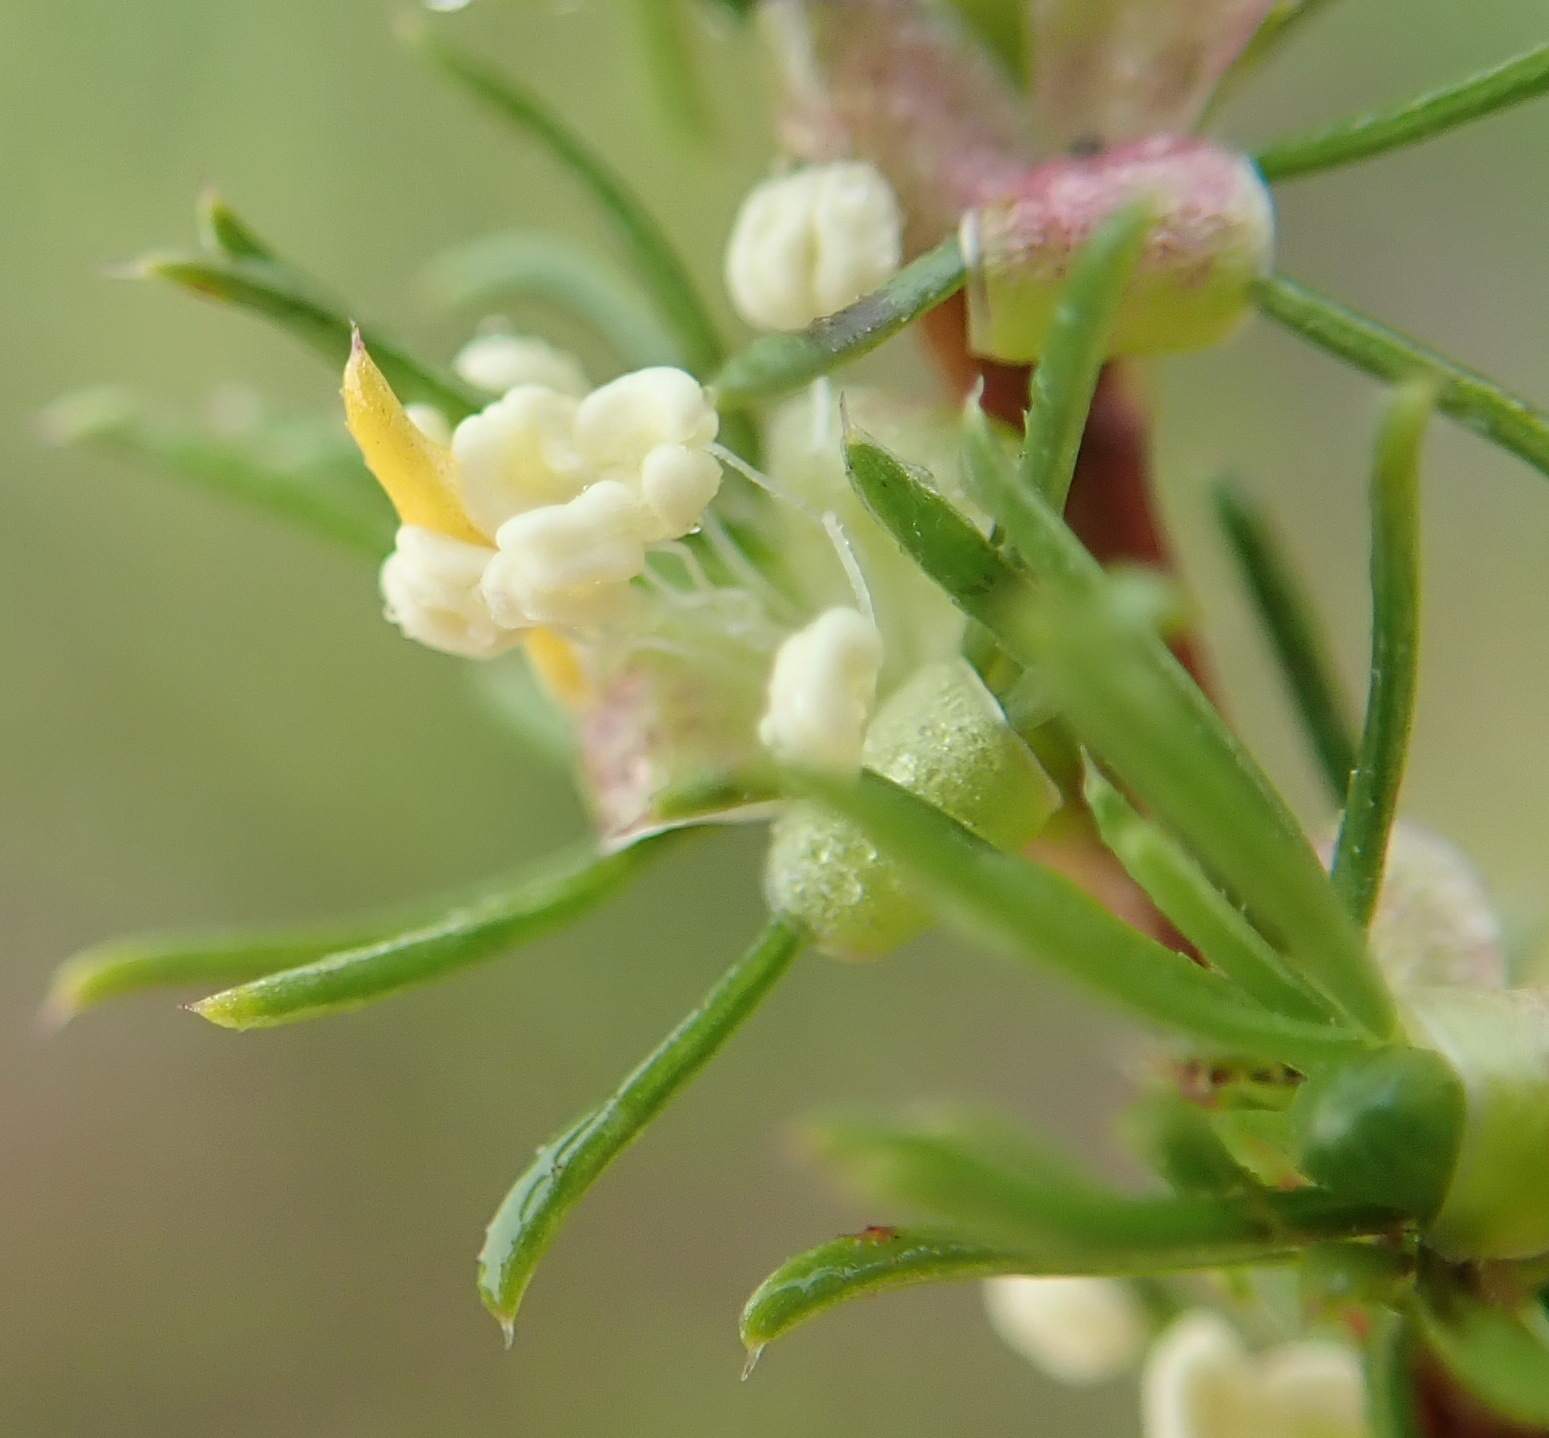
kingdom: Plantae
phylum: Tracheophyta
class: Magnoliopsida
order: Rosales
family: Rosaceae
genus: Cliffortia
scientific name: Cliffortia filifolia
